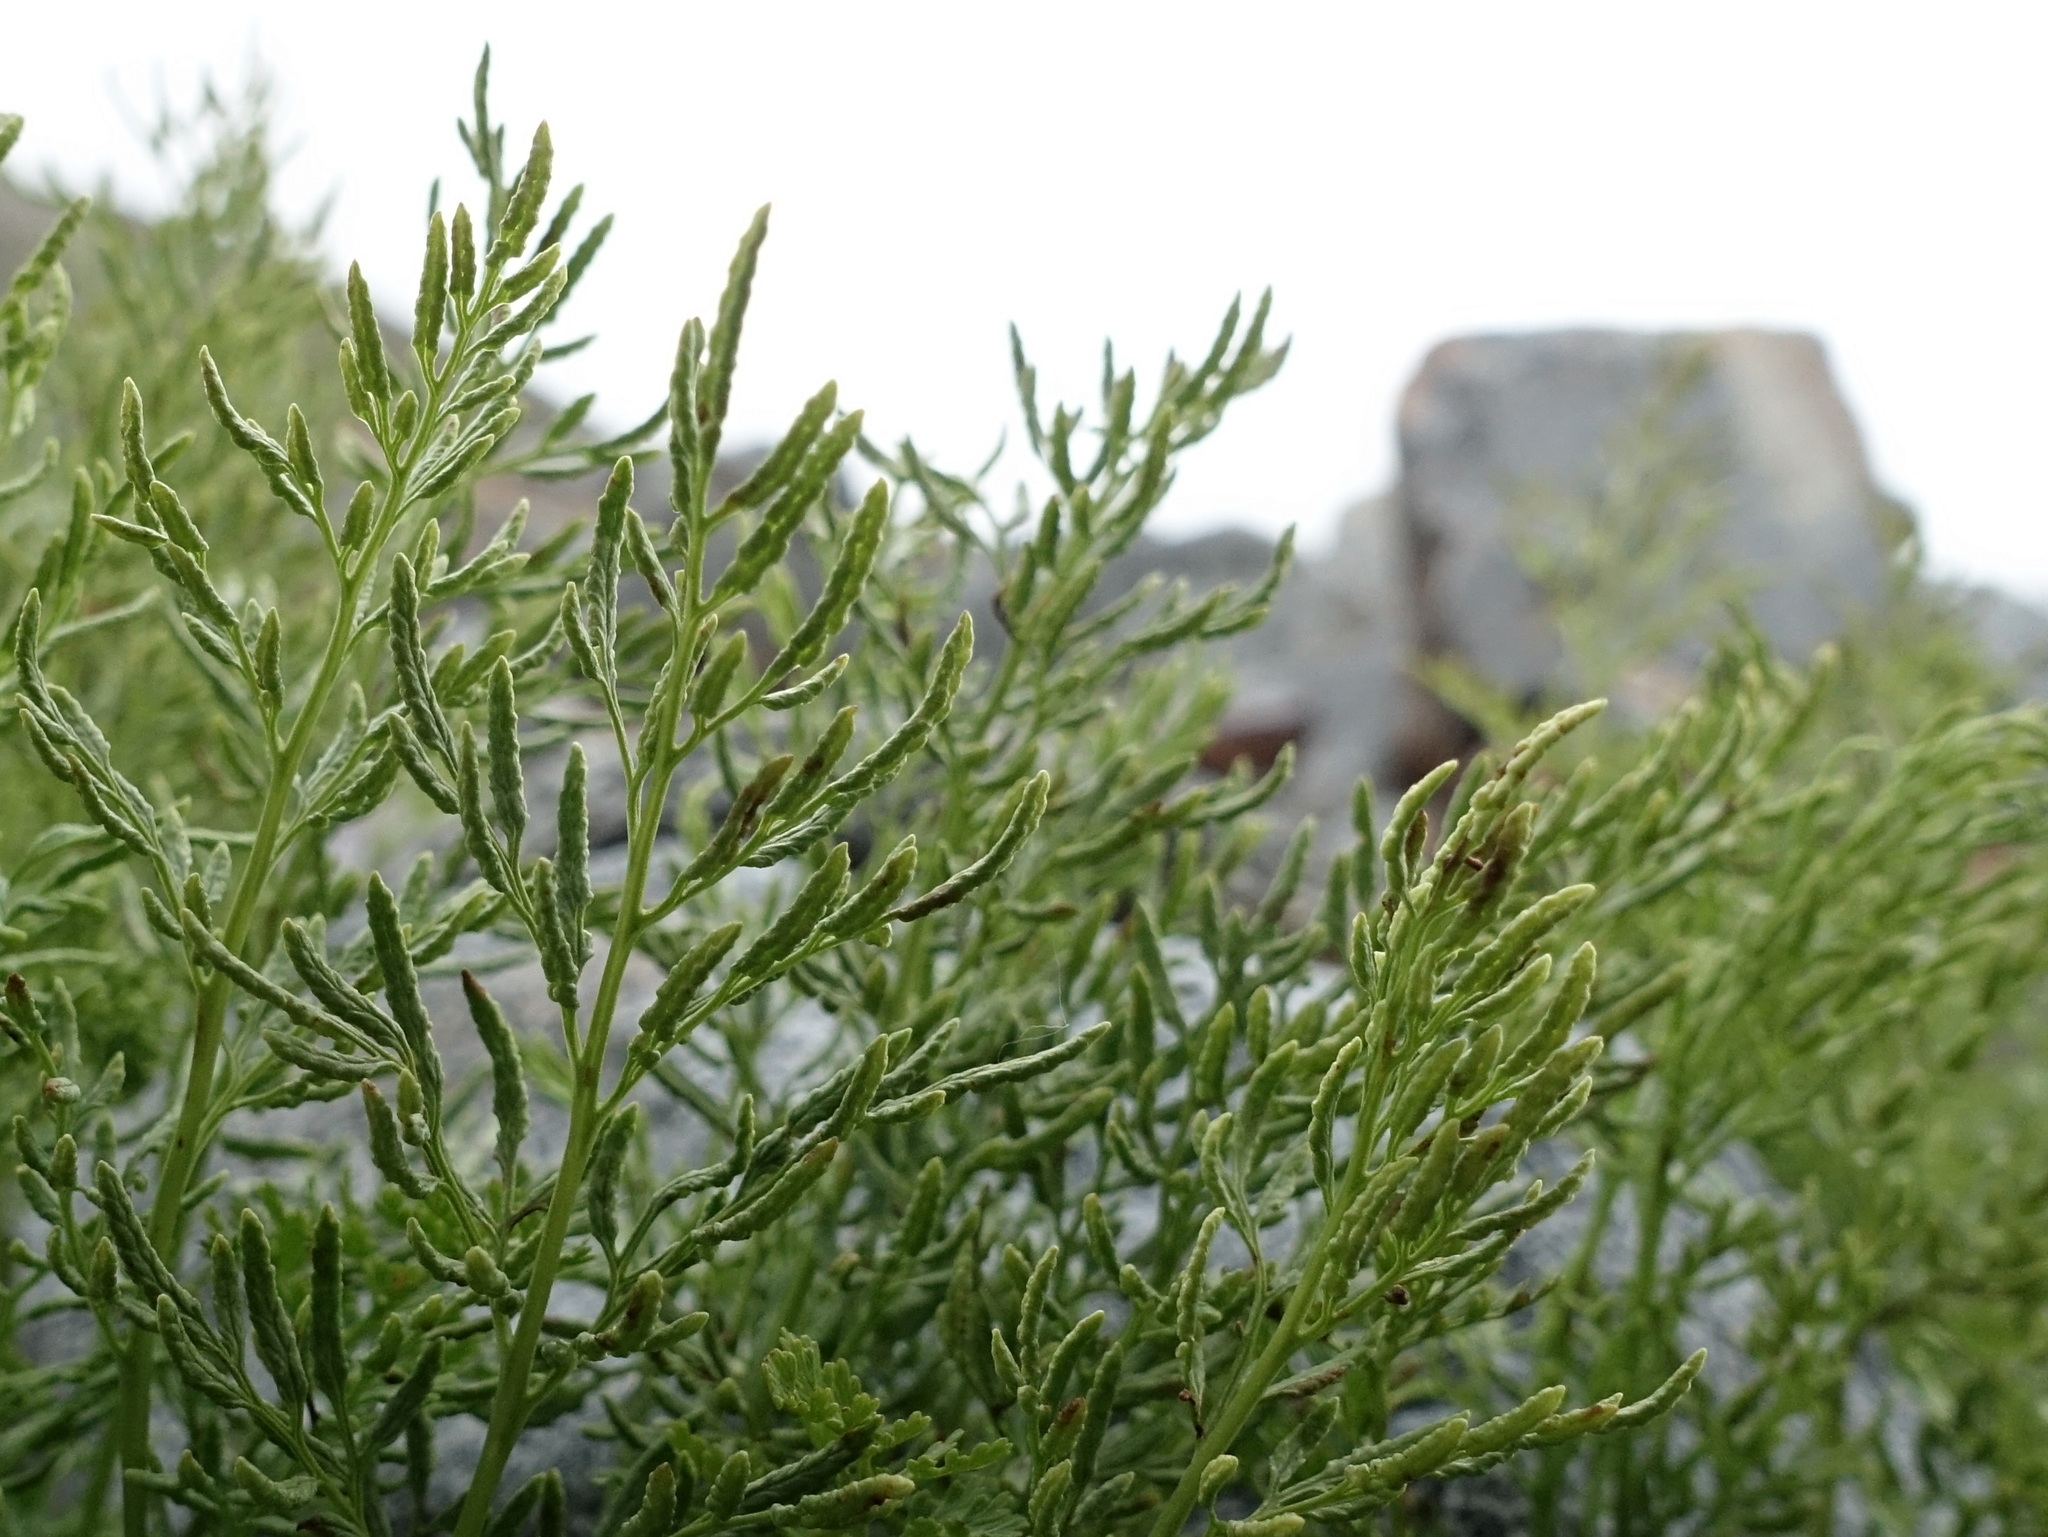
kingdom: Plantae
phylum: Tracheophyta
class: Polypodiopsida
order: Polypodiales
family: Pteridaceae
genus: Cryptogramma
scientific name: Cryptogramma crispa
